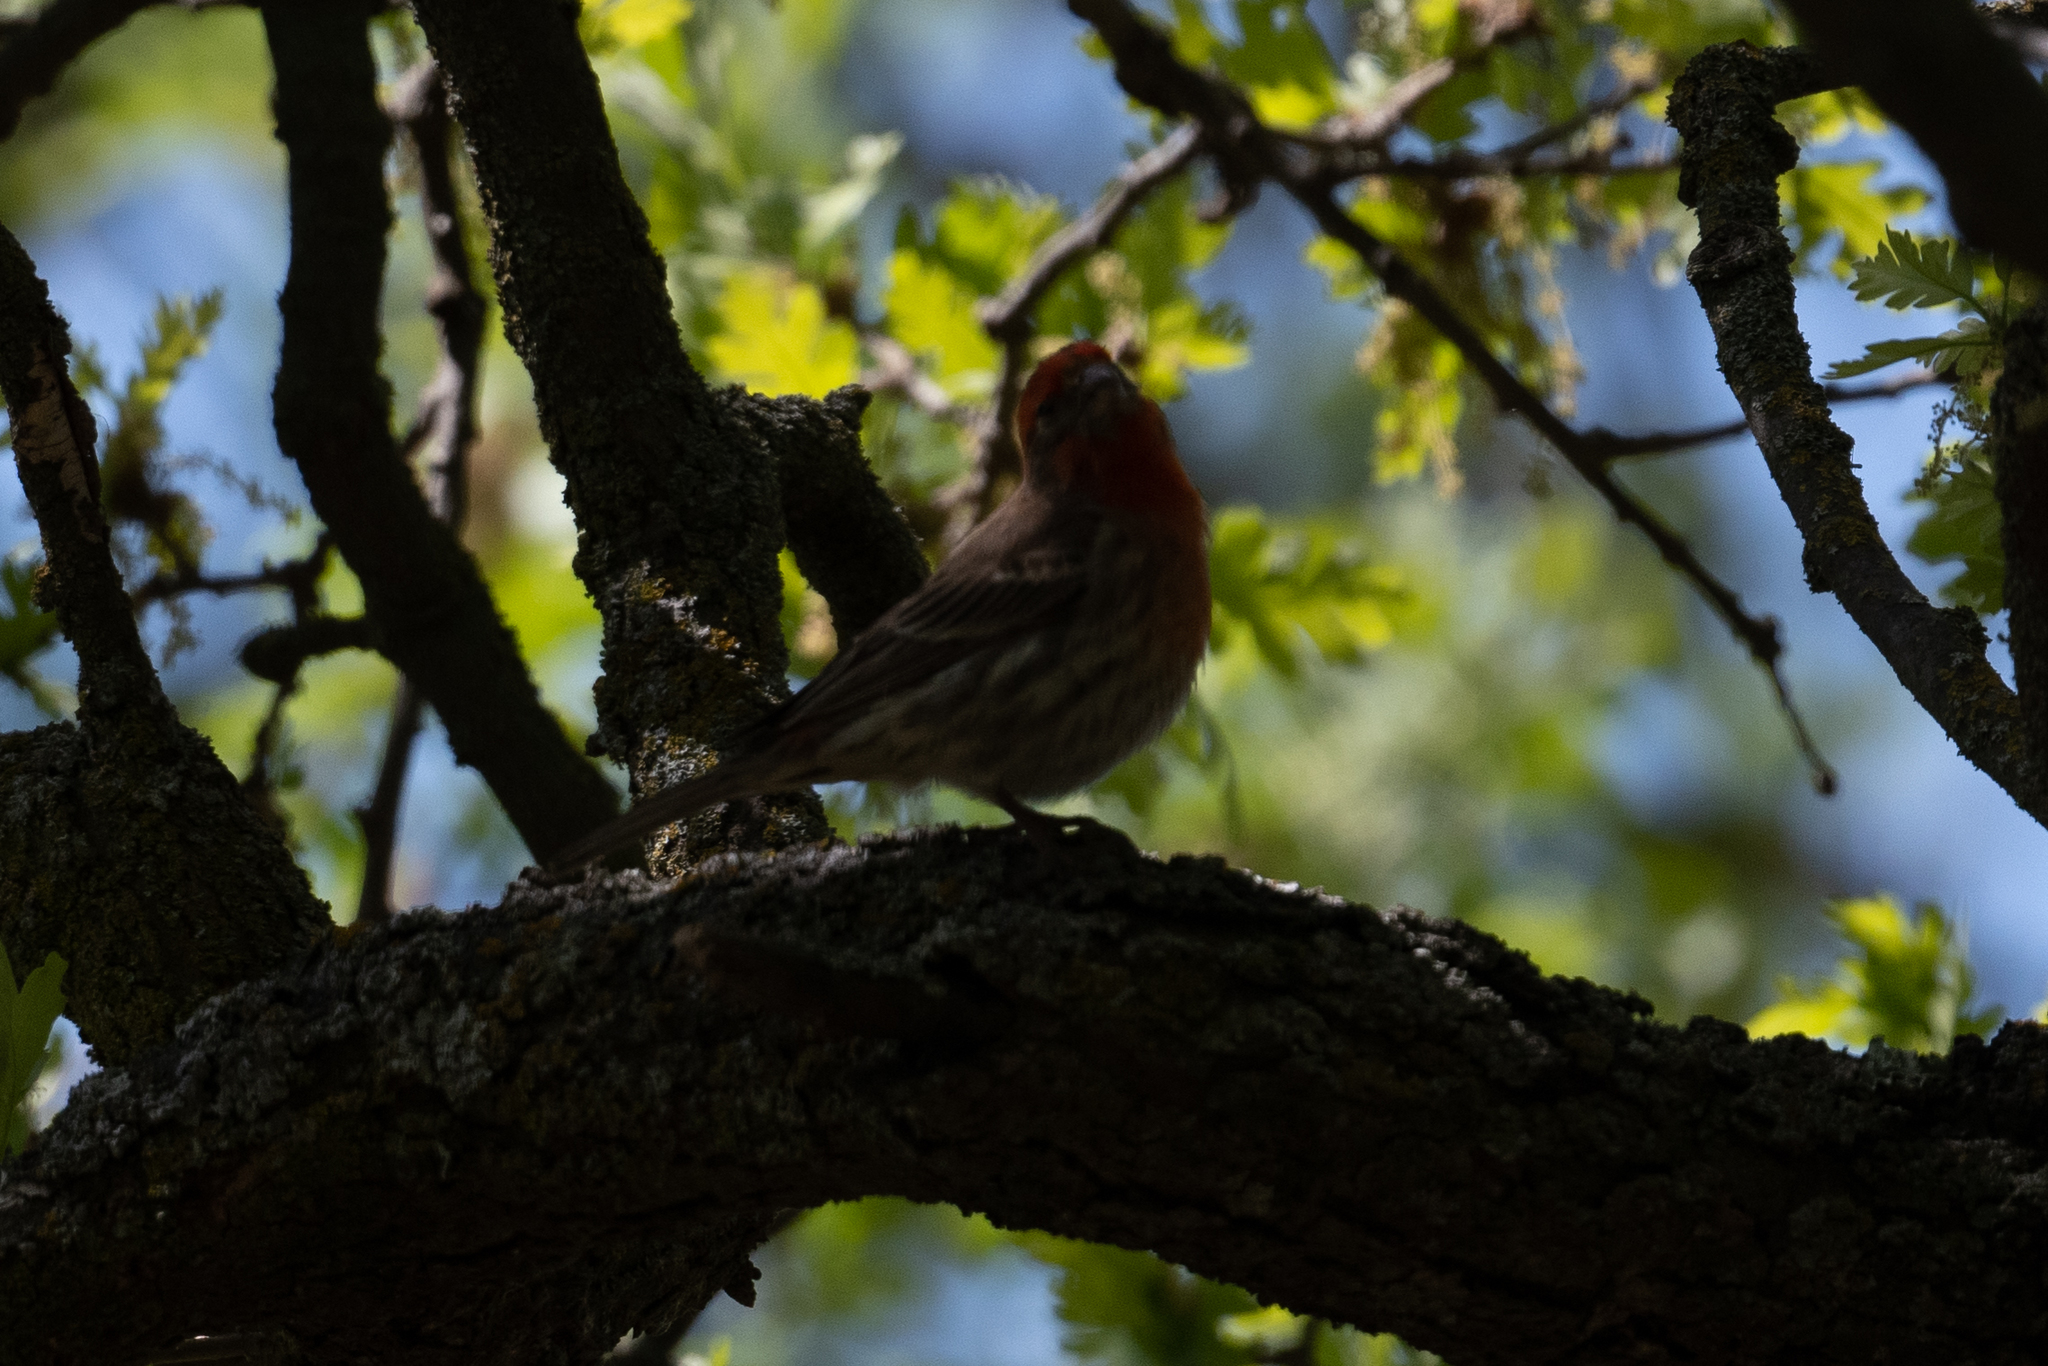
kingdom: Animalia
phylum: Chordata
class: Aves
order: Passeriformes
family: Fringillidae
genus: Haemorhous
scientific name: Haemorhous mexicanus
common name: House finch
